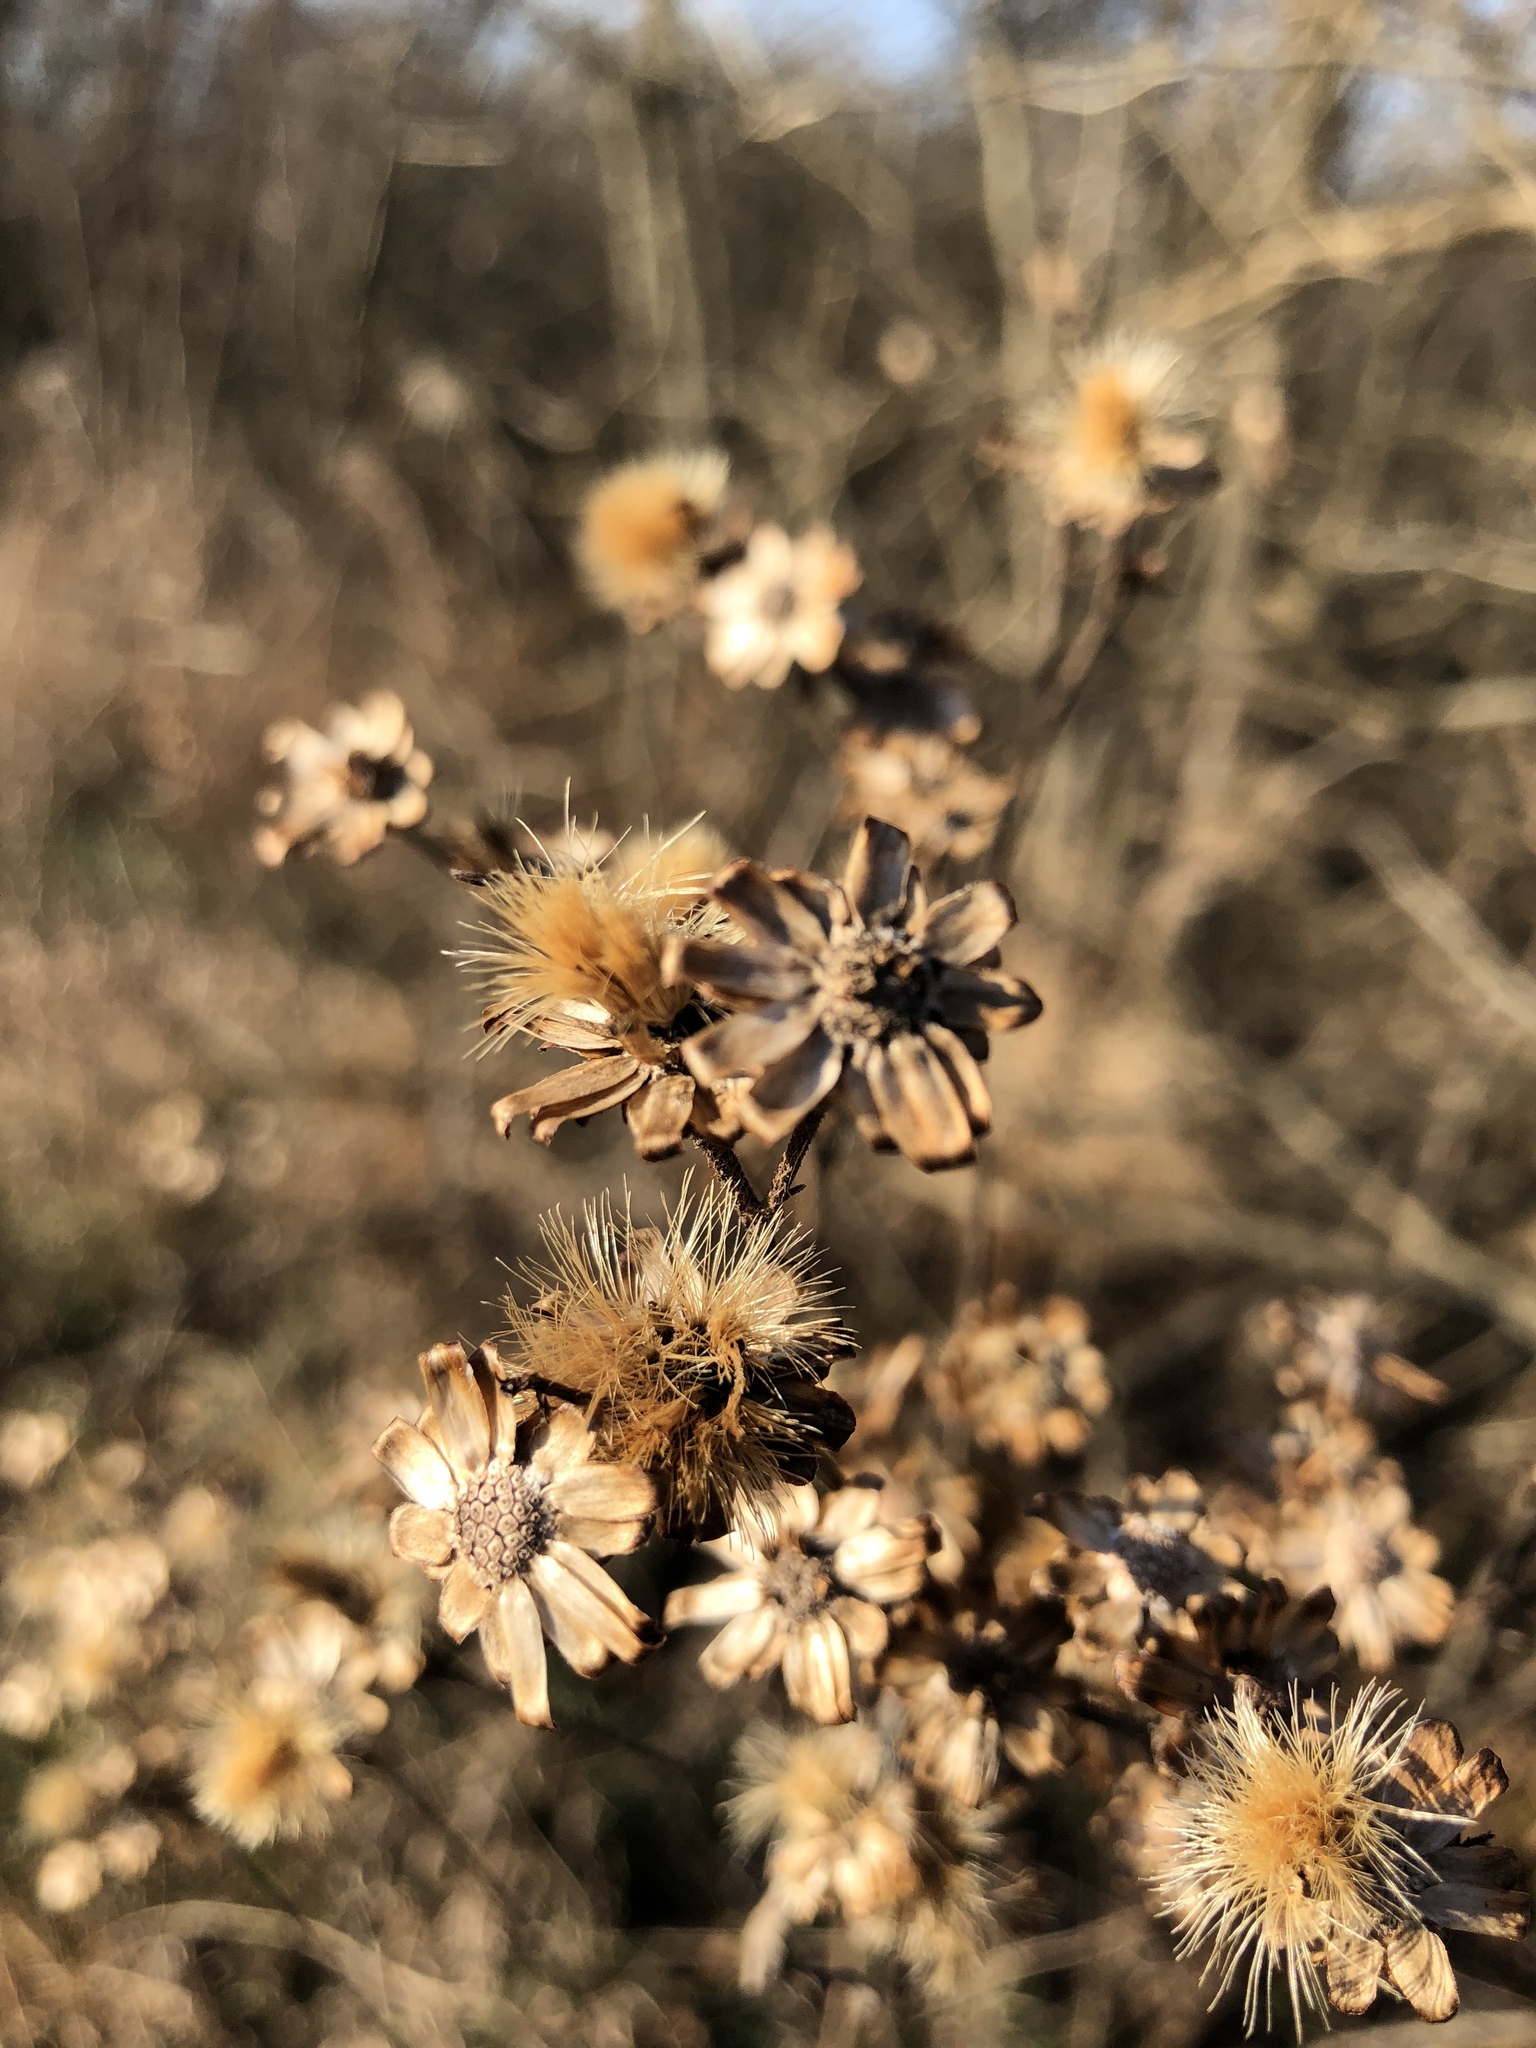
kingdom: Plantae
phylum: Tracheophyta
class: Magnoliopsida
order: Asterales
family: Asteraceae
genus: Vernonia
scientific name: Vernonia missurica
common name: Missouri ironweed
